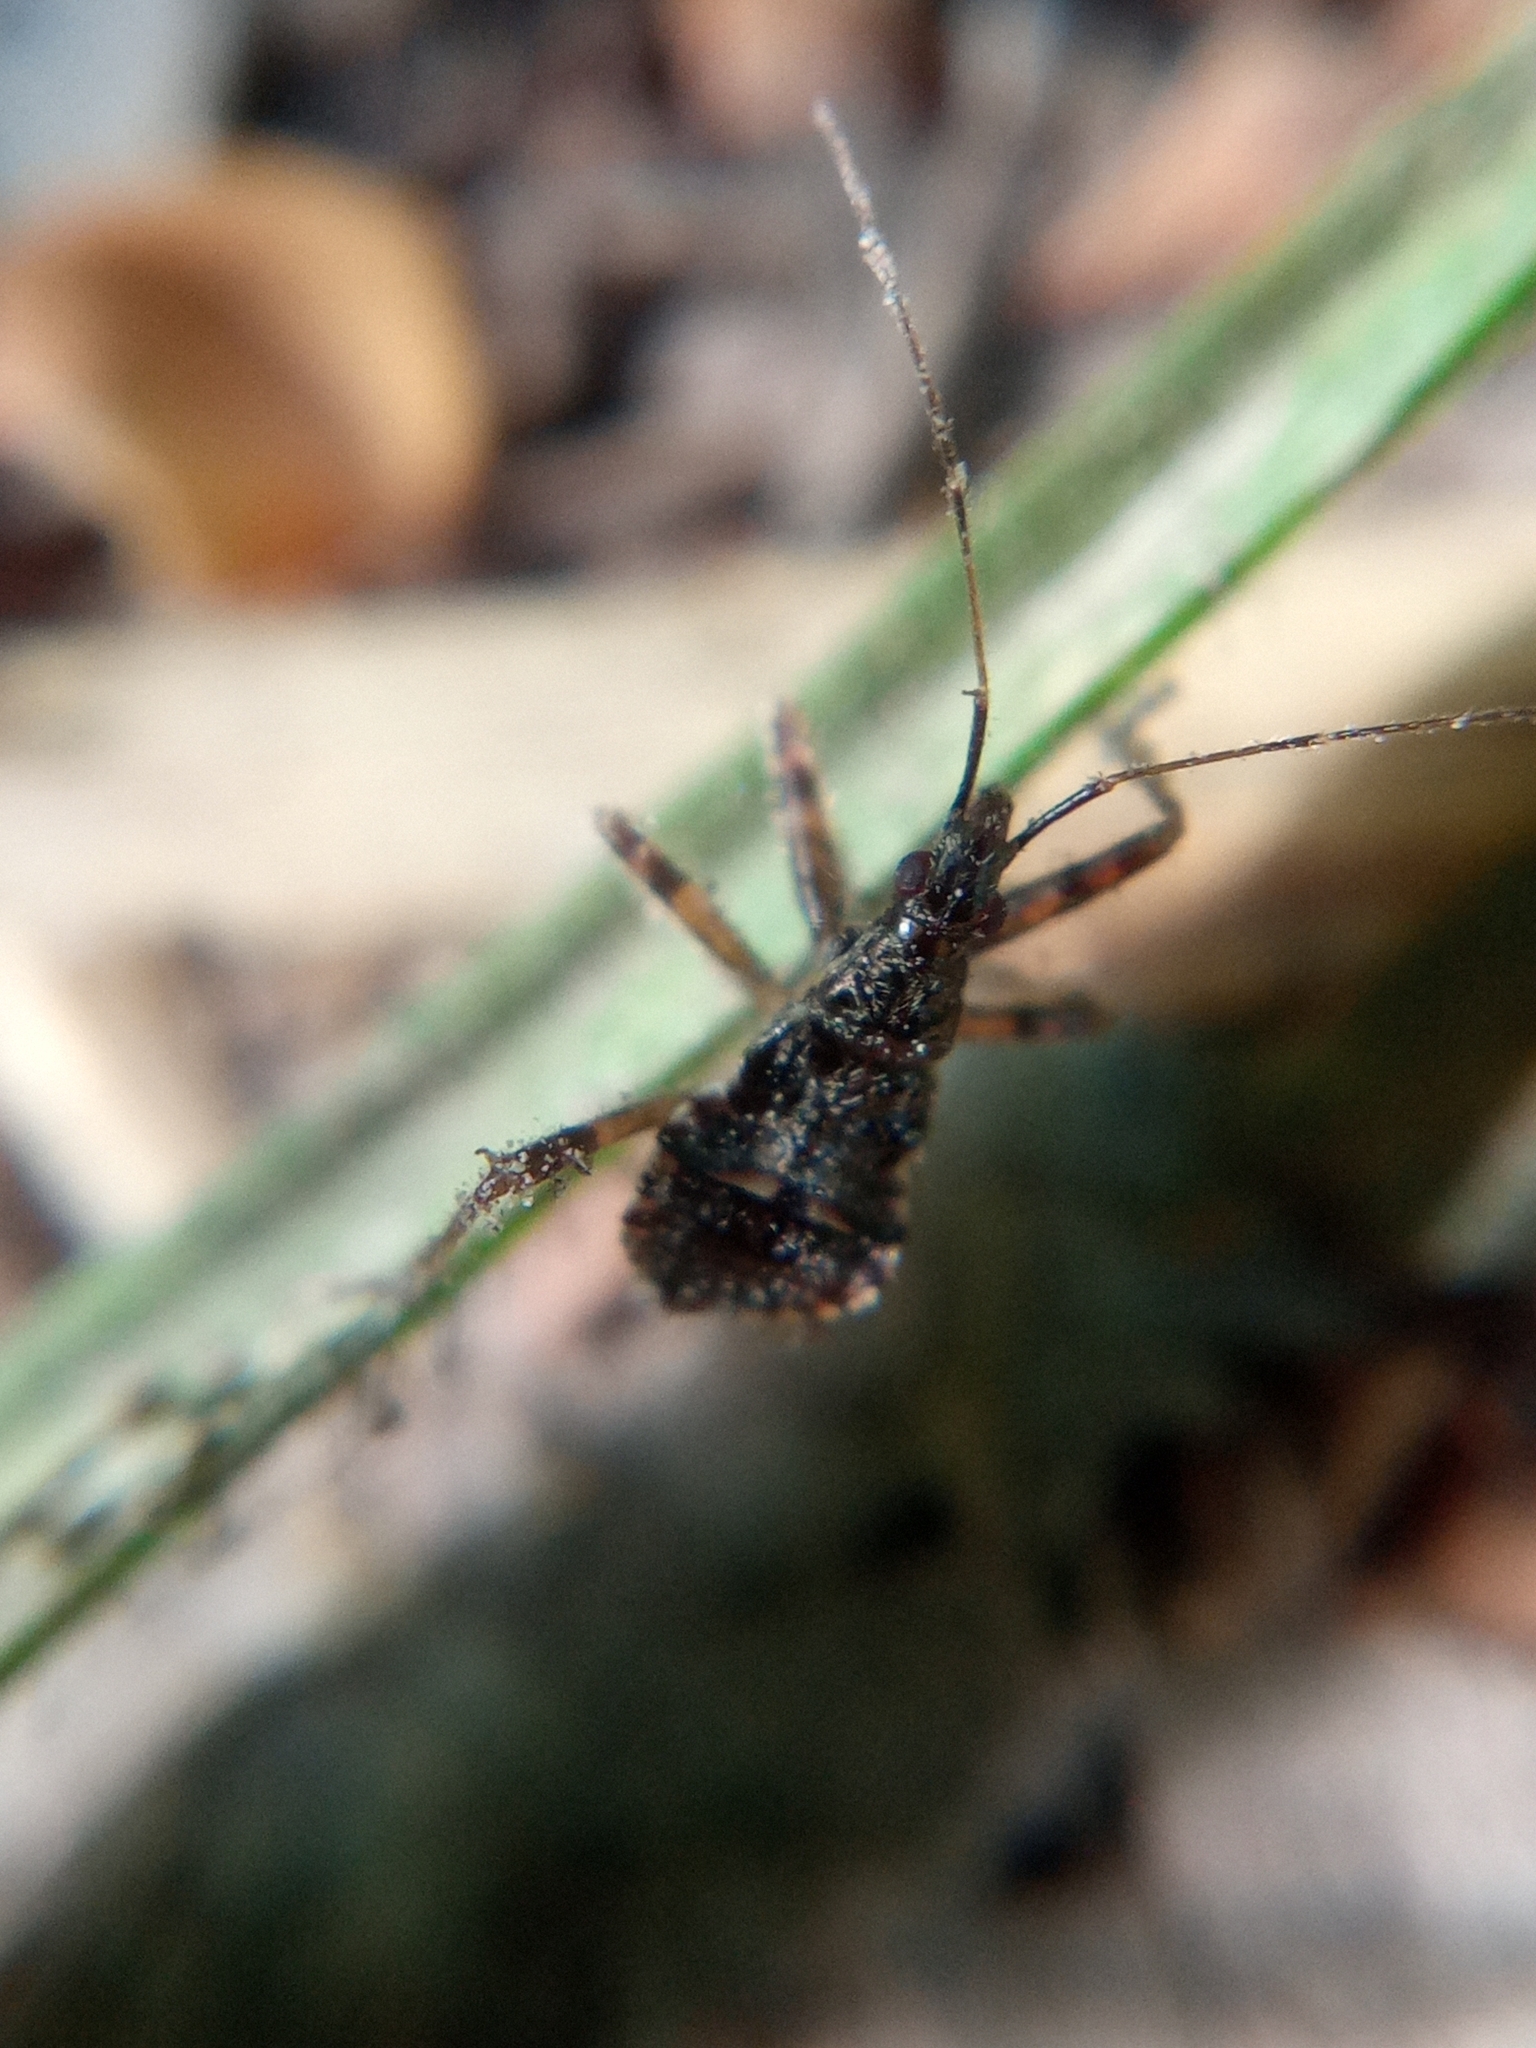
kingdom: Animalia
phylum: Arthropoda
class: Insecta
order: Hemiptera
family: Nabidae
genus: Himacerus
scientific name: Himacerus apterus
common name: Tree damsel bug
